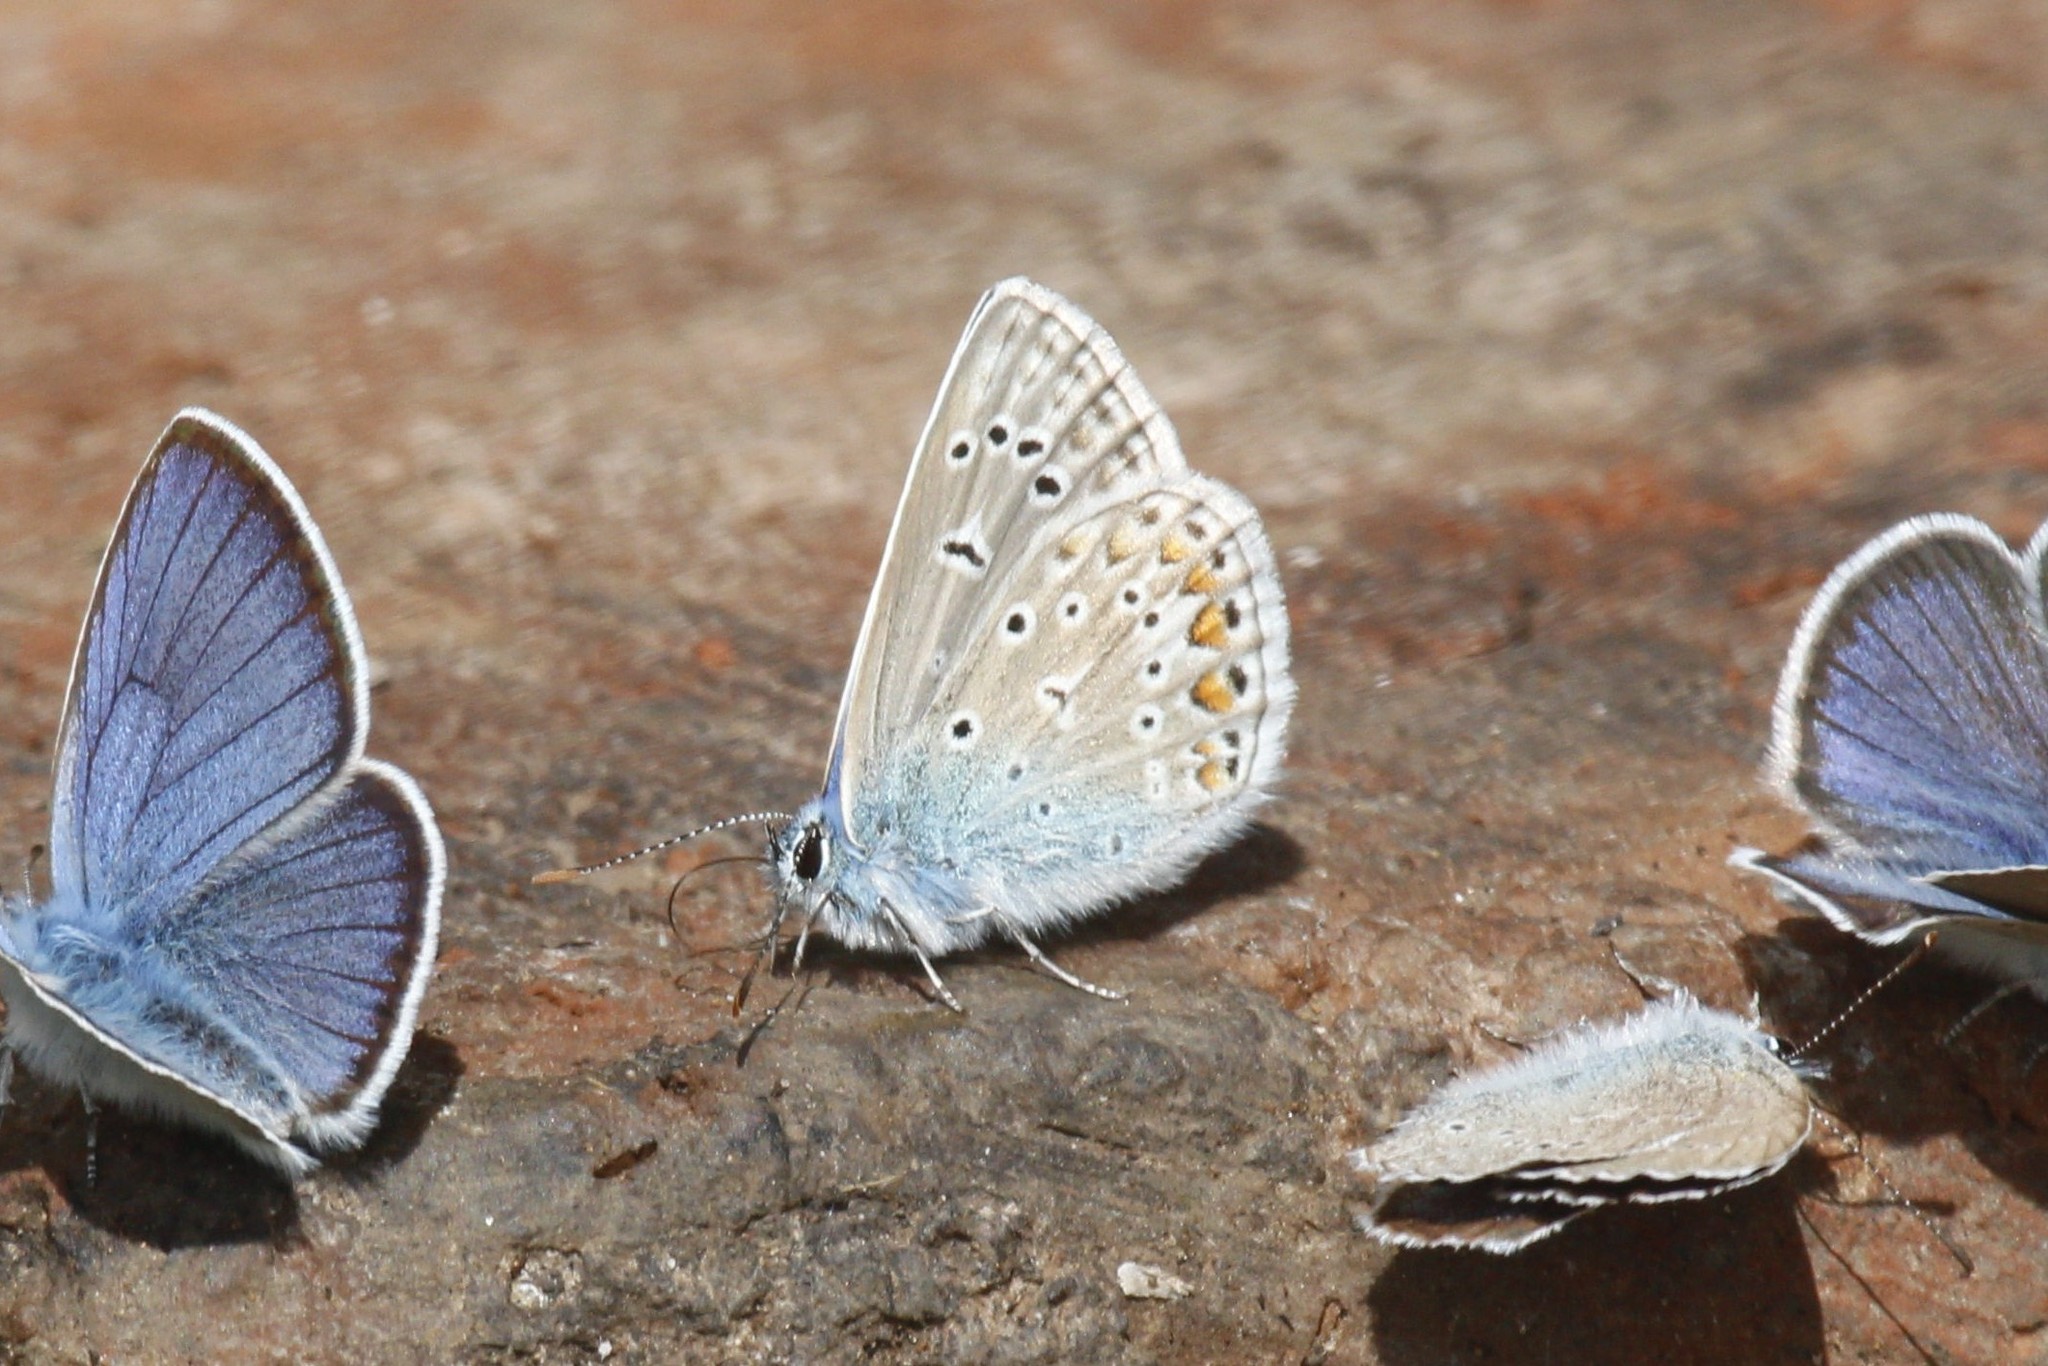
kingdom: Animalia
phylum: Arthropoda
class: Insecta
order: Lepidoptera
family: Lycaenidae
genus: Polyommatus
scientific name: Polyommatus icarus
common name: Common blue
